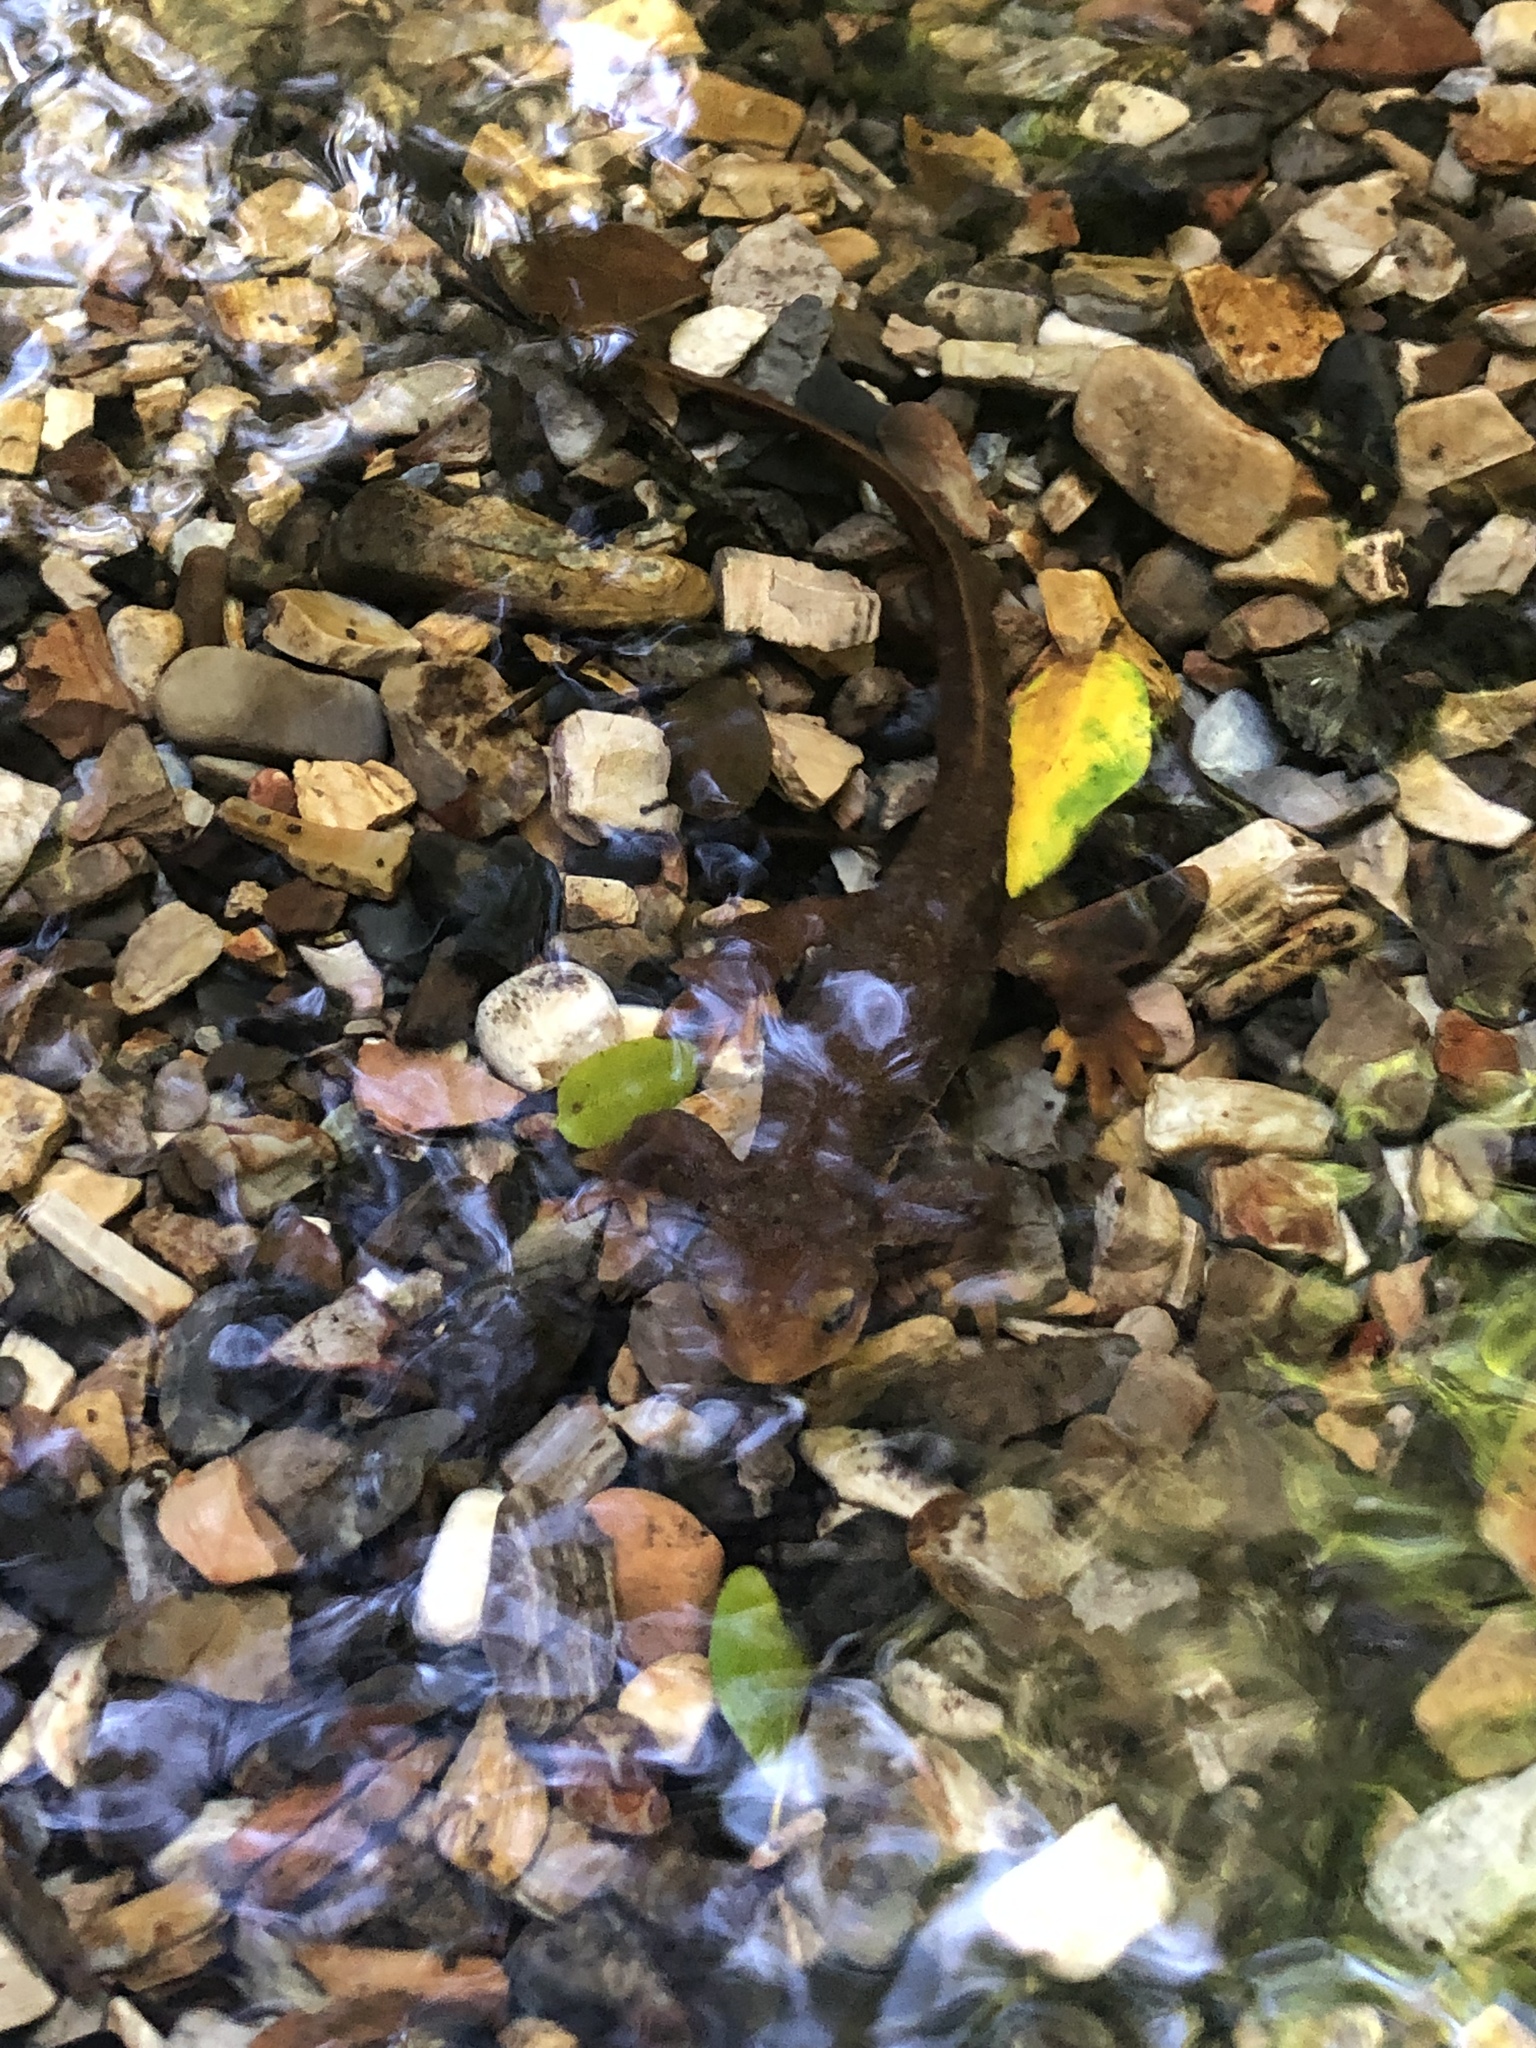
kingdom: Animalia
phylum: Chordata
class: Amphibia
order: Caudata
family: Salamandridae
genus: Taricha
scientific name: Taricha torosa
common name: California newt
